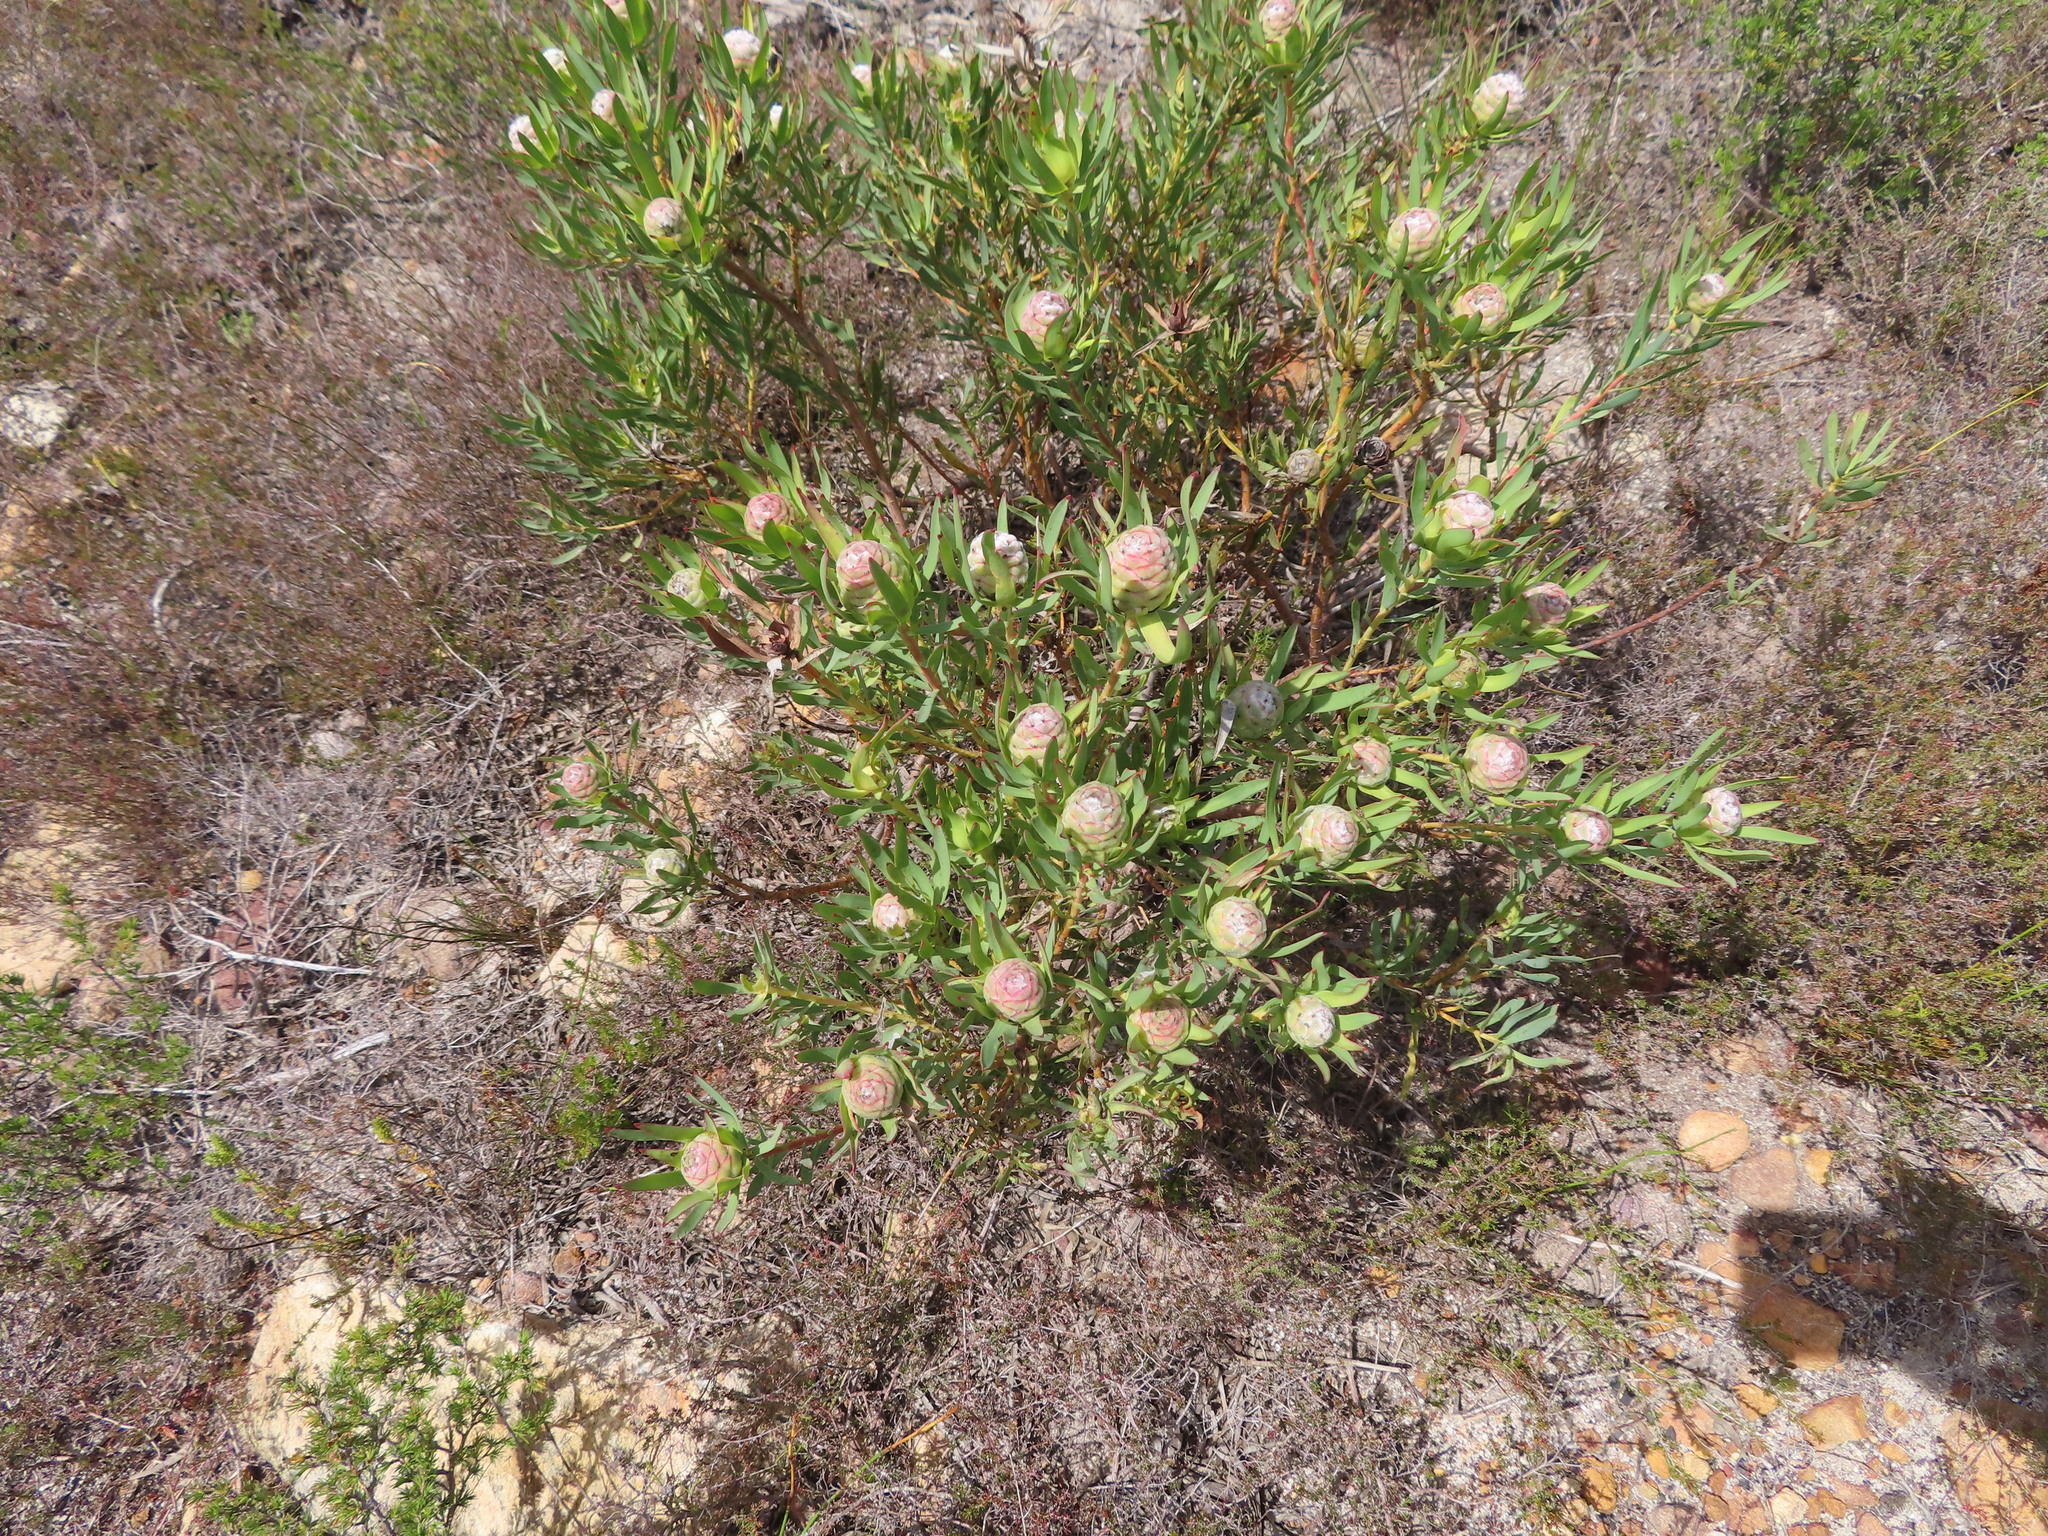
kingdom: Plantae
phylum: Tracheophyta
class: Magnoliopsida
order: Proteales
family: Proteaceae
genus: Leucadendron
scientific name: Leucadendron salignum
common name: Common sunshine conebush
